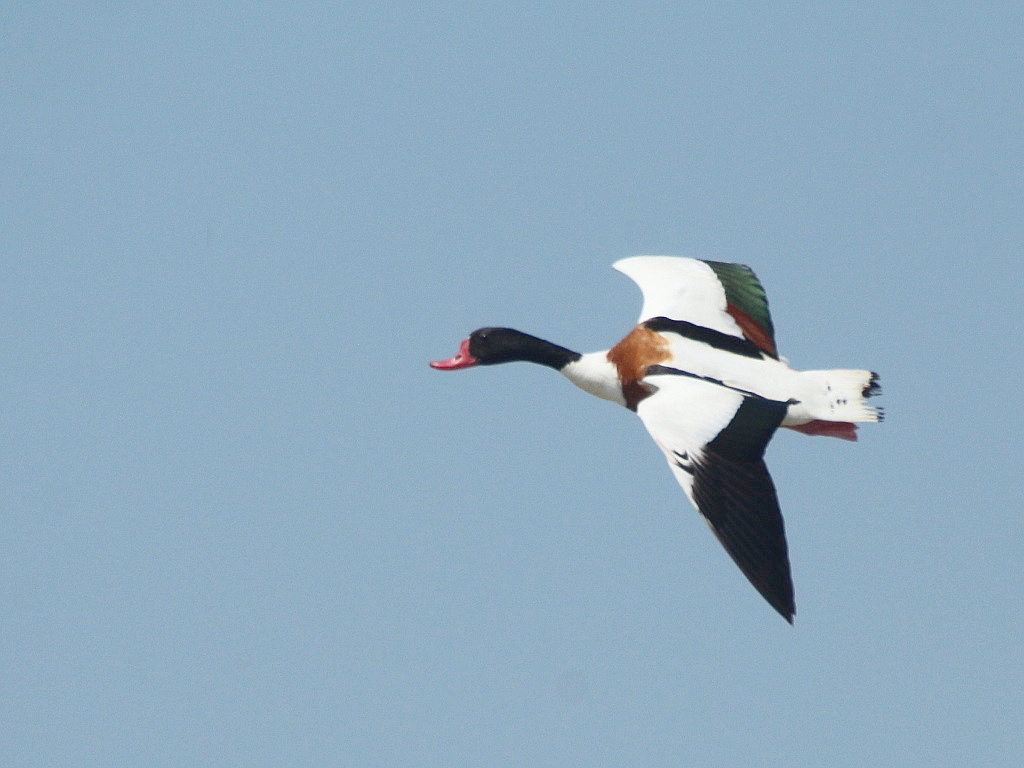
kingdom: Animalia
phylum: Chordata
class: Aves
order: Anseriformes
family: Anatidae
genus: Tadorna
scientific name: Tadorna tadorna
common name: Common shelduck
